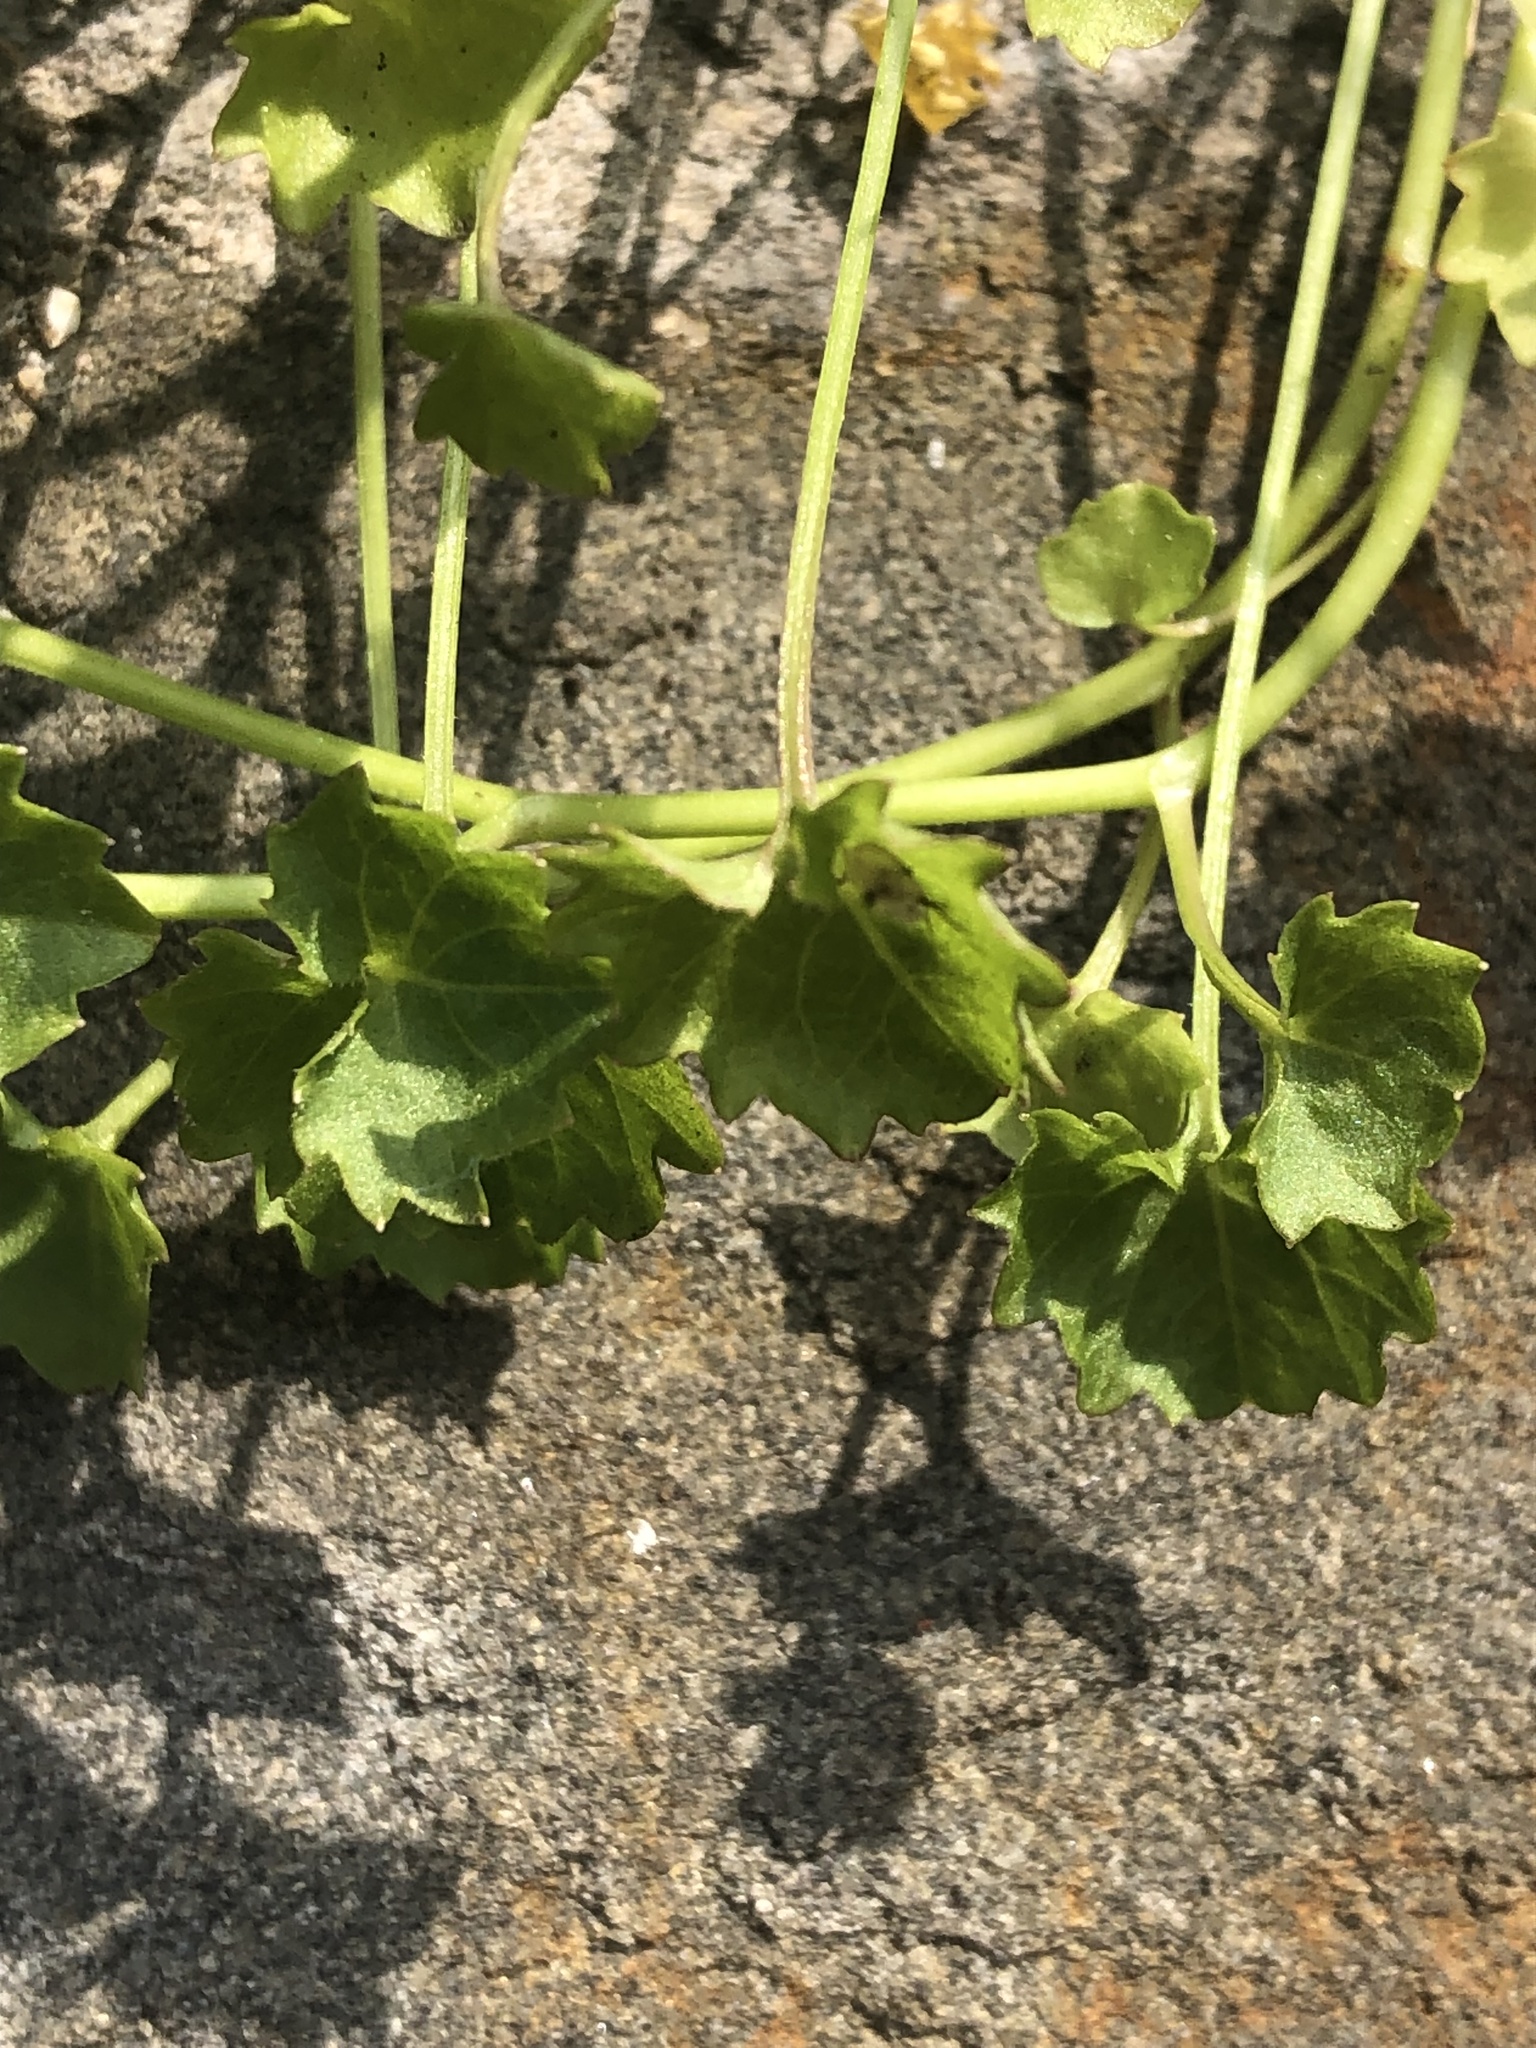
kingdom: Plantae
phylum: Tracheophyta
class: Magnoliopsida
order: Asterales
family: Campanulaceae
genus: Campanula
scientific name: Campanula portenschlagiana
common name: Adria bellflower
